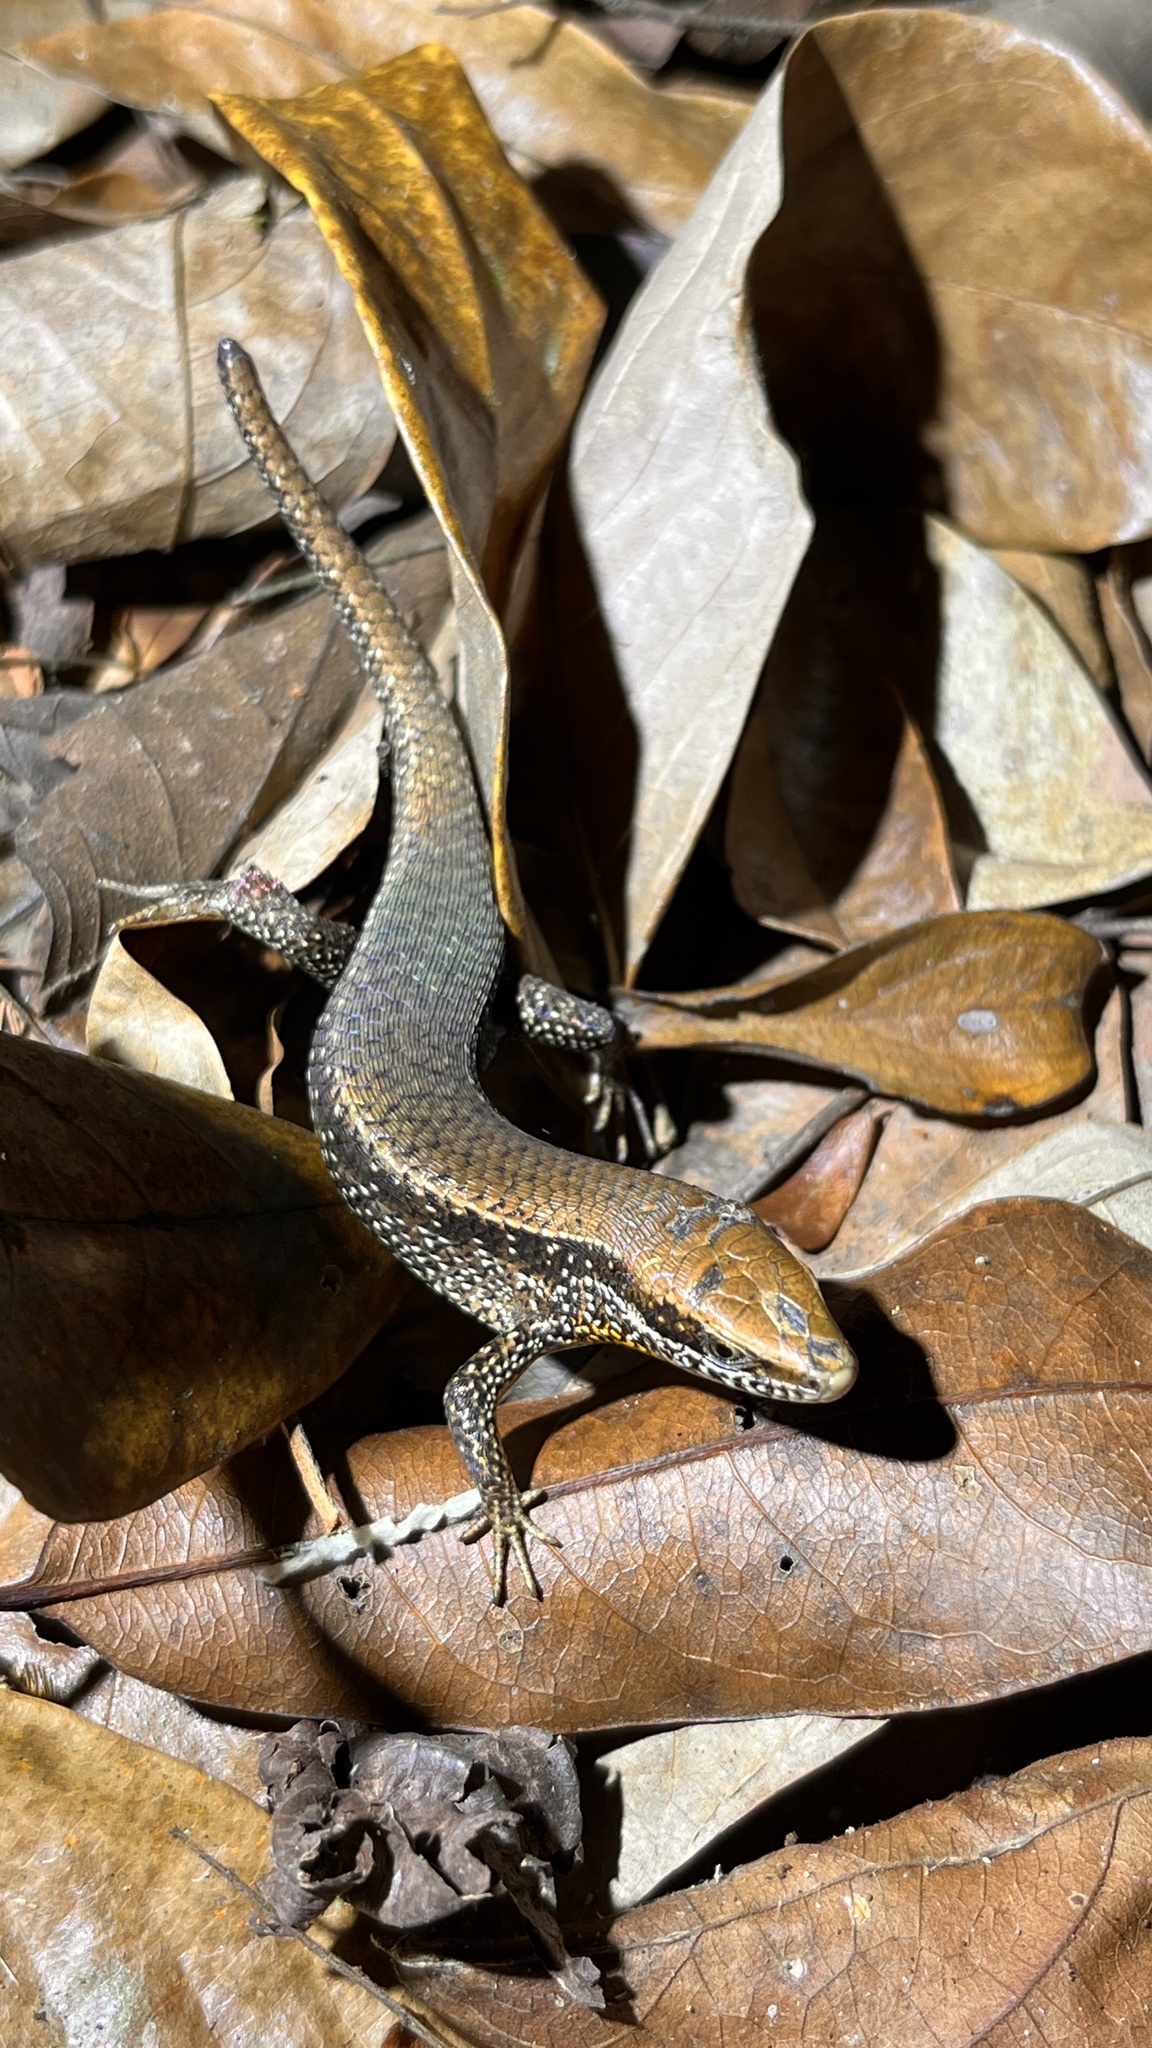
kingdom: Animalia
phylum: Chordata
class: Squamata
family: Scincidae
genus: Eutropis
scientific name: Eutropis macularia
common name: Bronze mabuya
